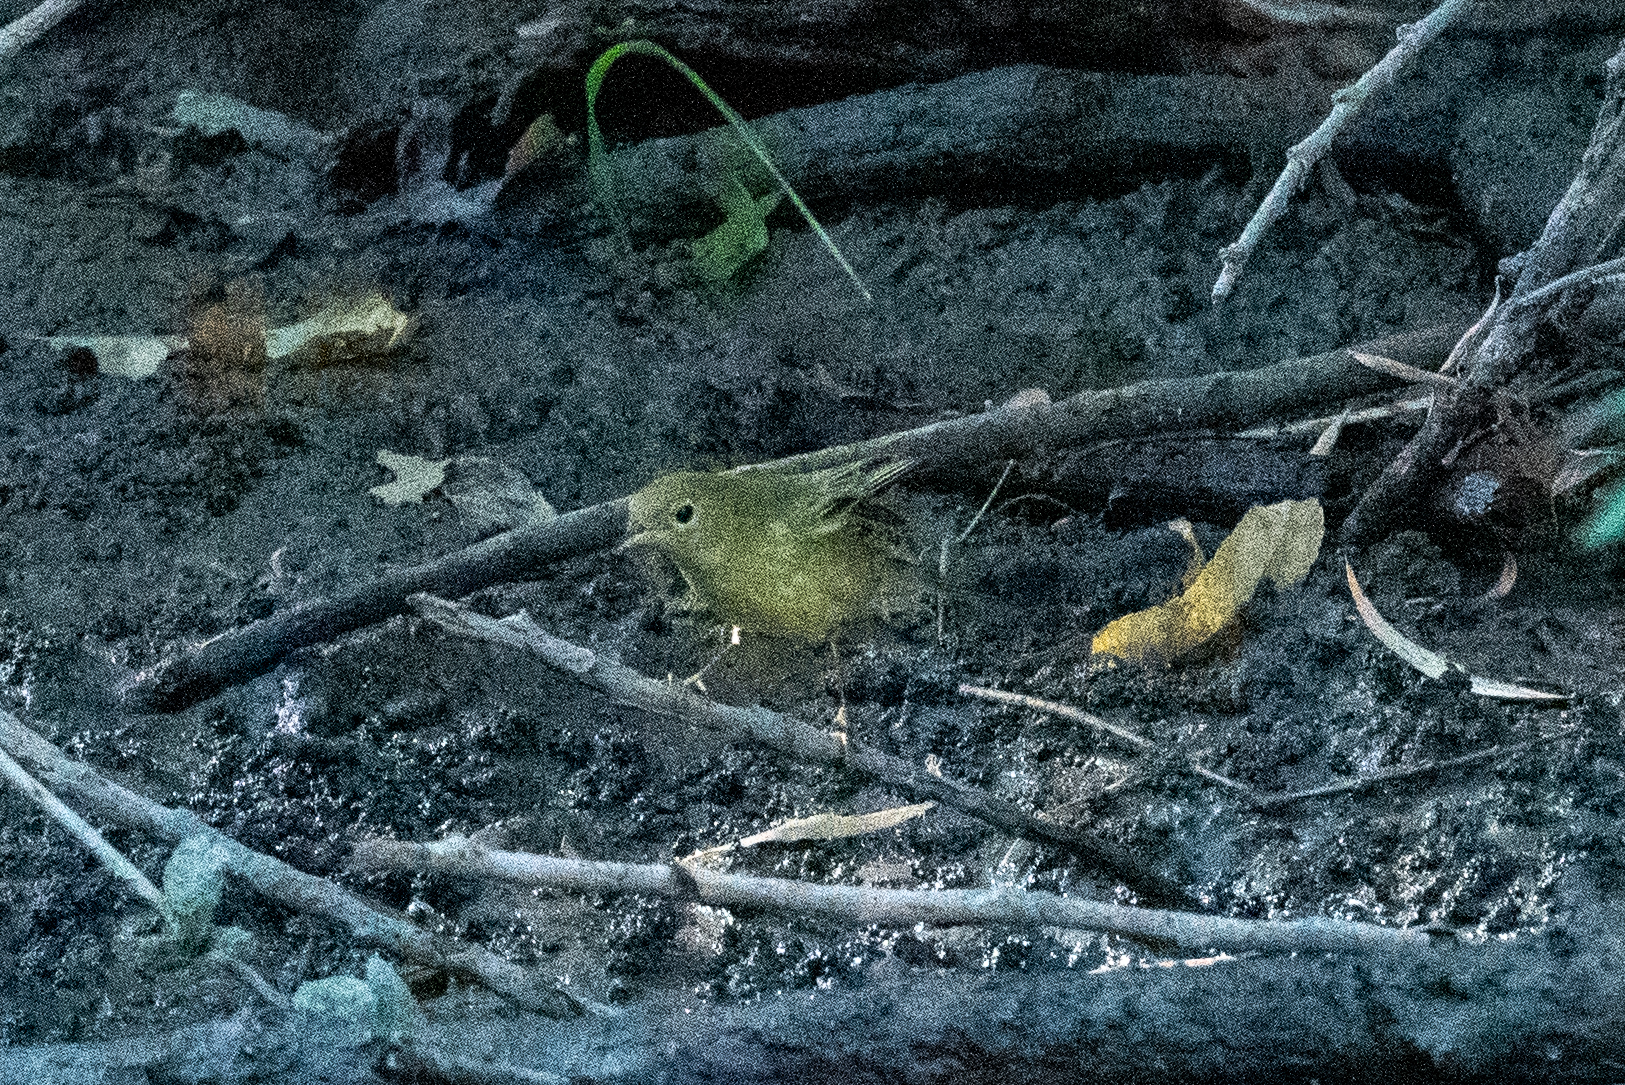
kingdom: Animalia
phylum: Chordata
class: Aves
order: Passeriformes
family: Parulidae
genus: Setophaga
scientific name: Setophaga petechia
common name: Yellow warbler
